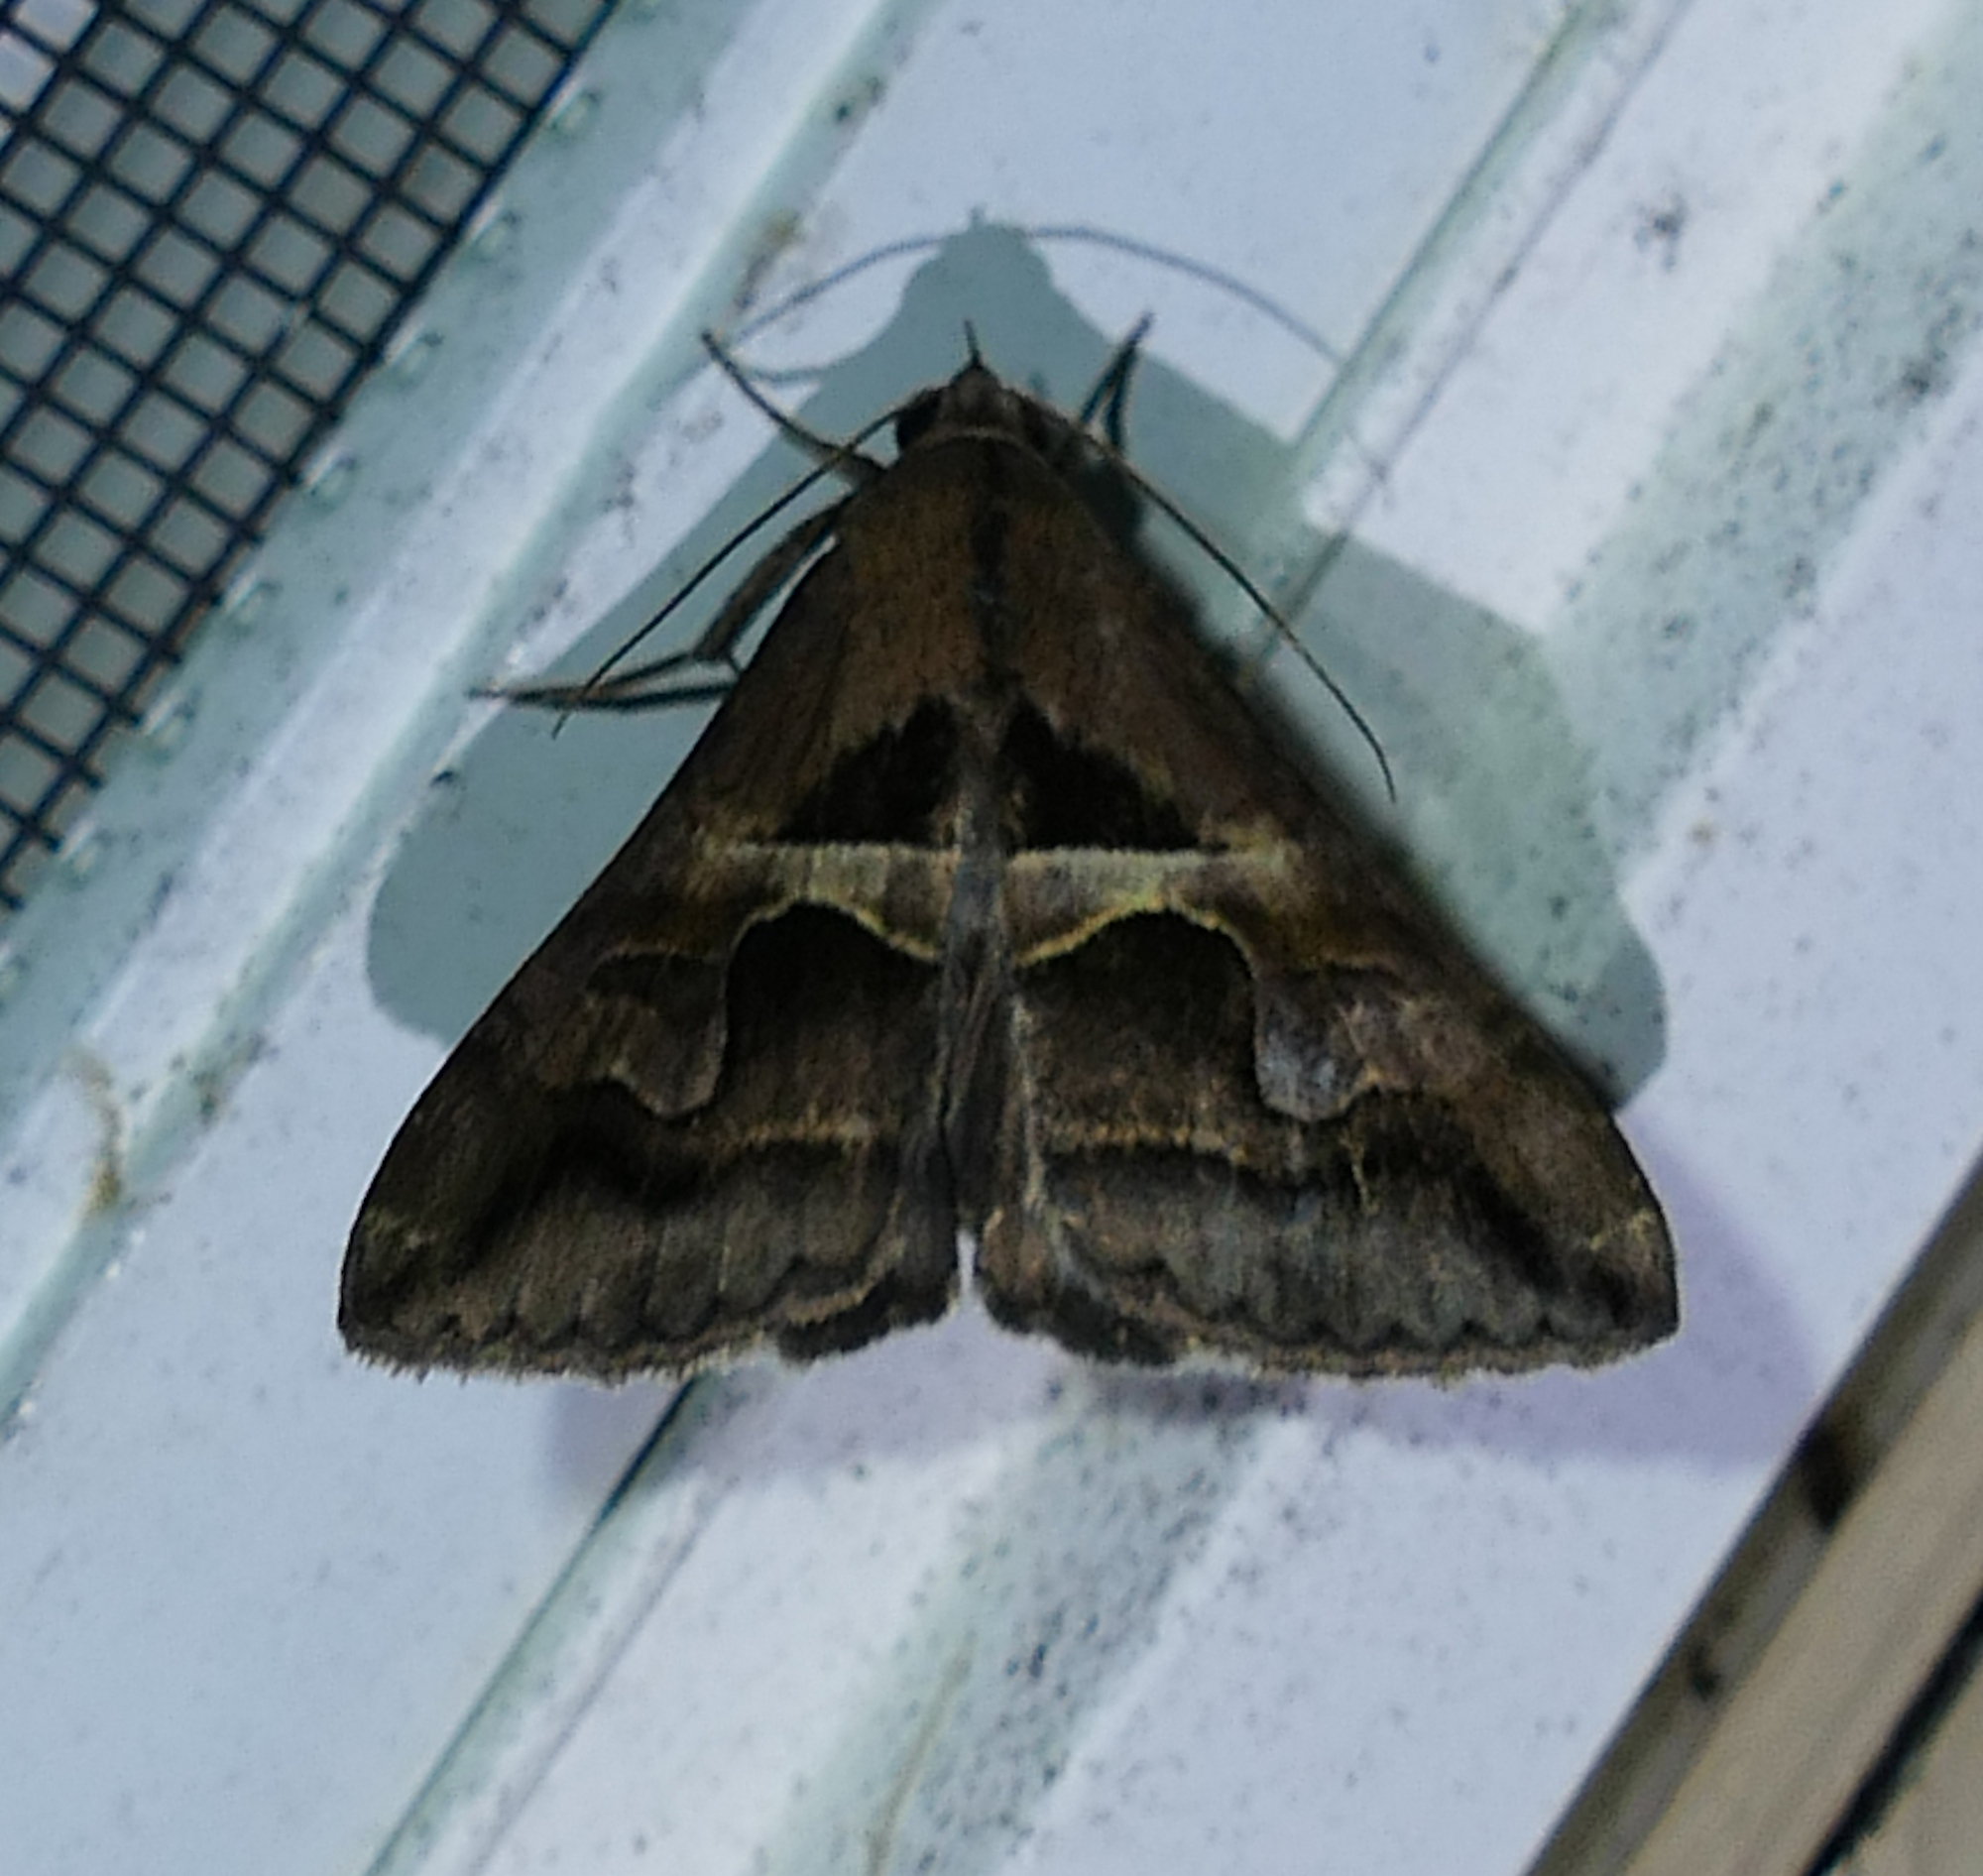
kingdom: Animalia
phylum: Arthropoda
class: Insecta
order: Lepidoptera
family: Erebidae
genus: Melipotis
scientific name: Melipotis cellaris
